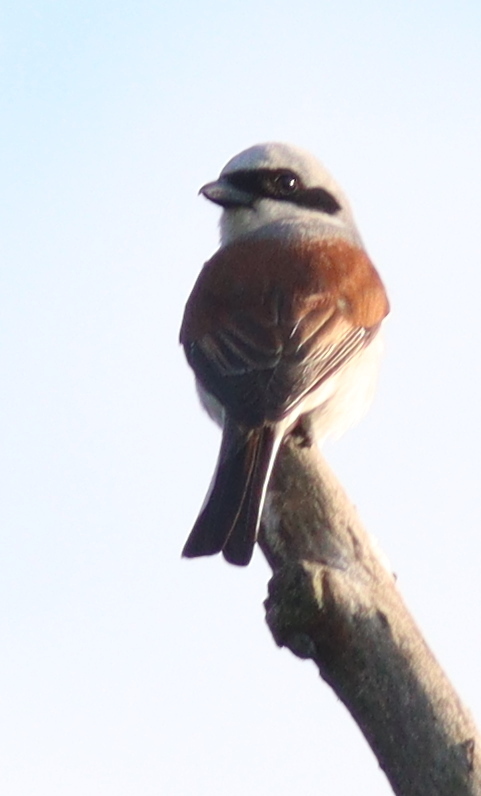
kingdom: Animalia
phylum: Chordata
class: Aves
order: Passeriformes
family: Laniidae
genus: Lanius
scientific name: Lanius collurio
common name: Red-backed shrike
